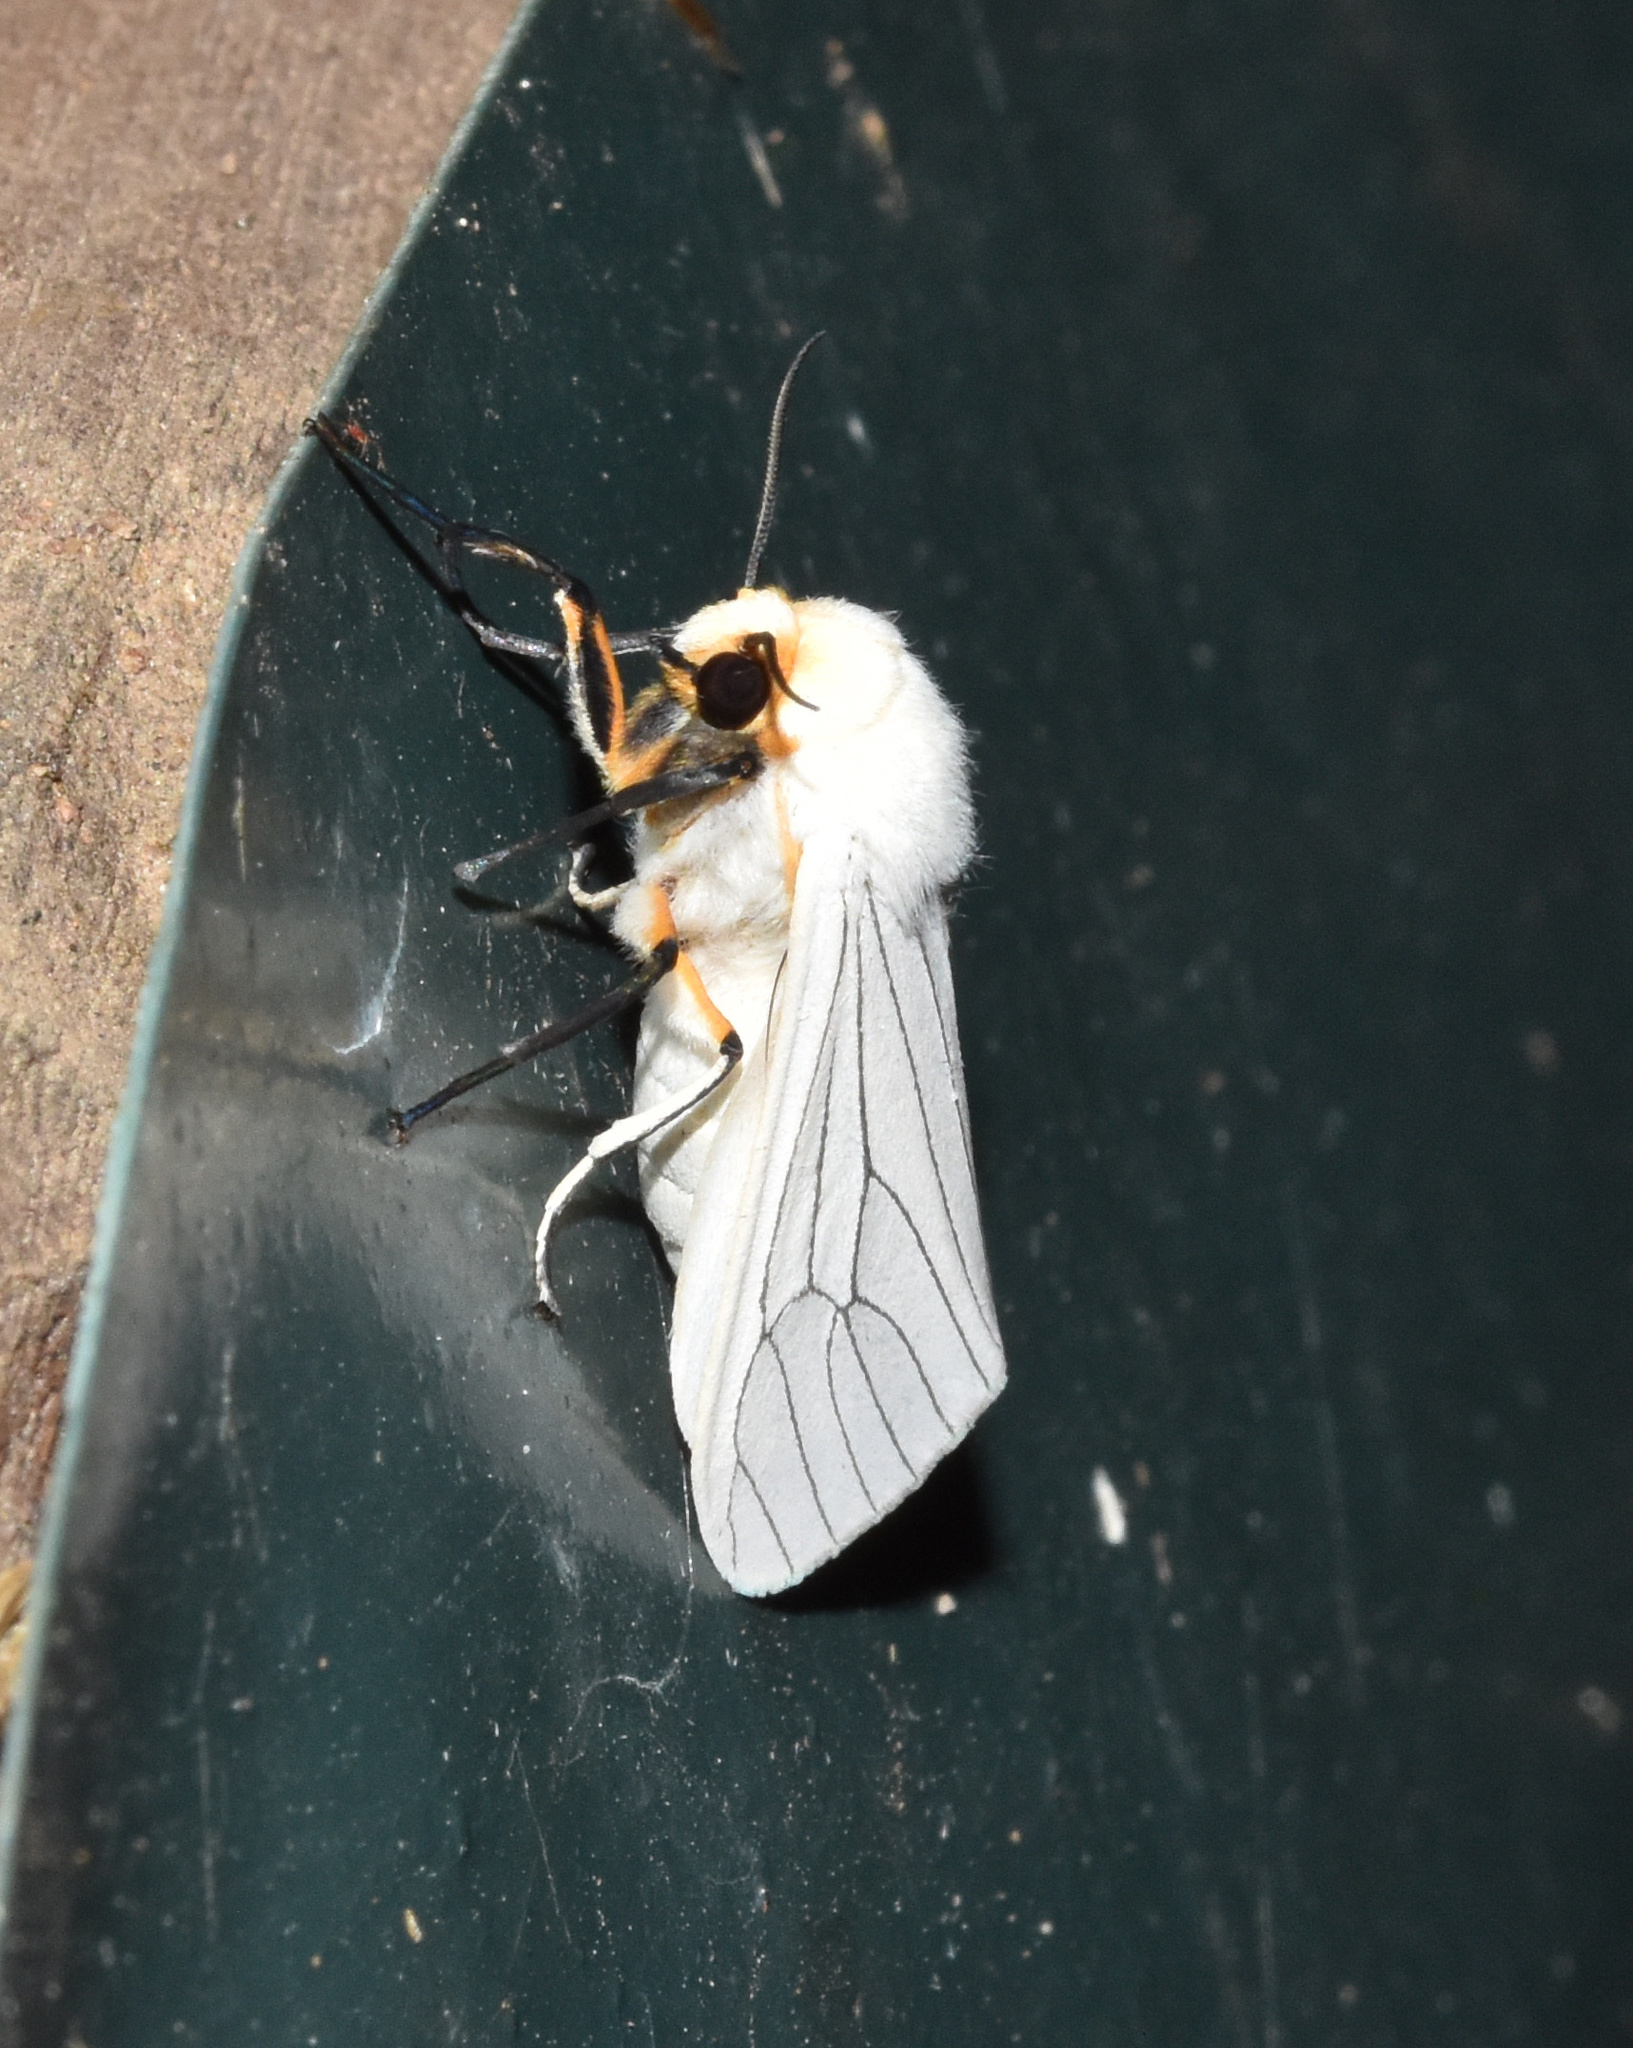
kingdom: Animalia
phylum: Arthropoda
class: Insecta
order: Lepidoptera
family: Erebidae
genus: Ustjuzhania
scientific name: Ustjuzhania lineata
